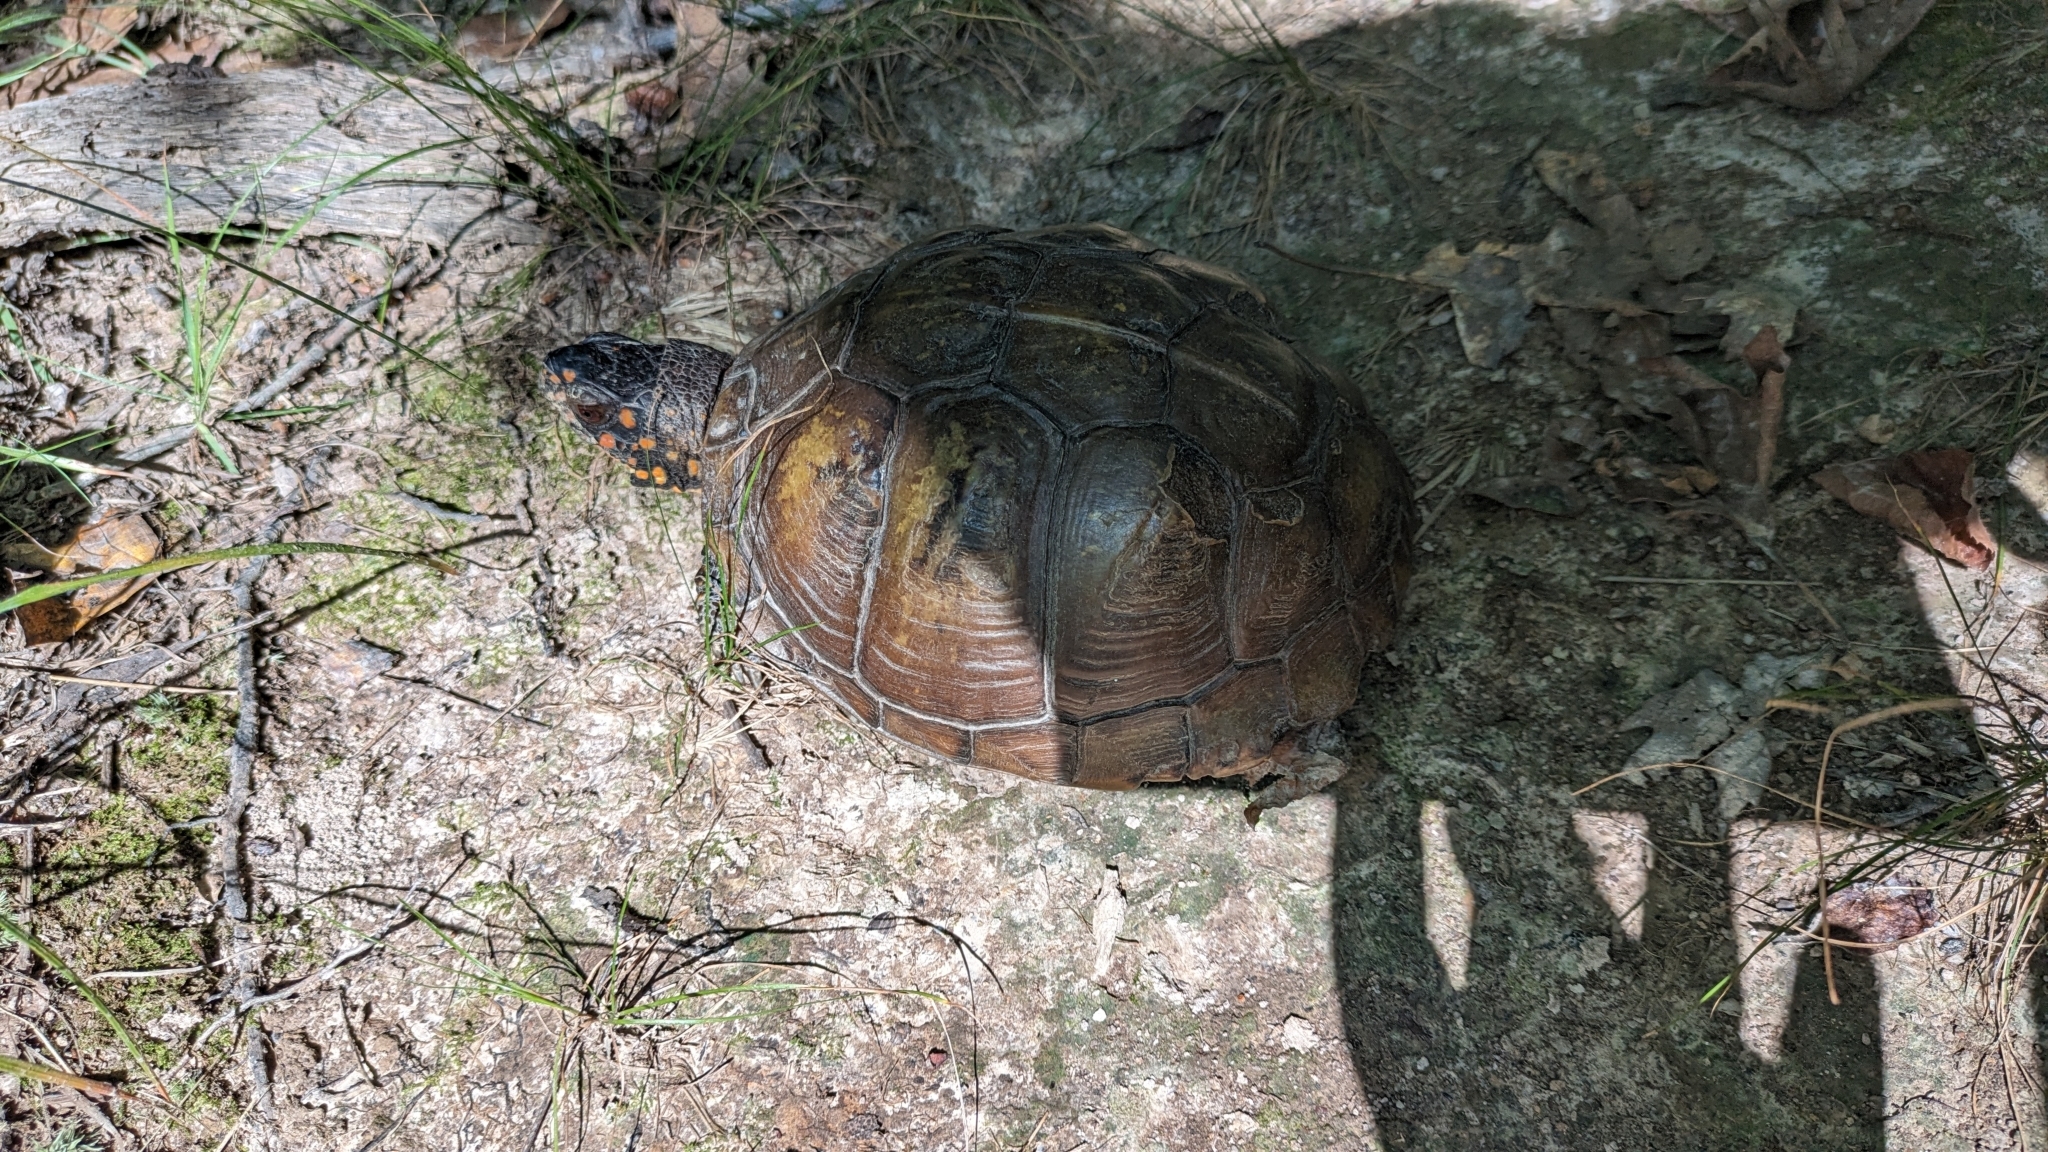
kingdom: Animalia
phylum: Chordata
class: Testudines
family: Emydidae
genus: Terrapene
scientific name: Terrapene carolina
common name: Common box turtle
